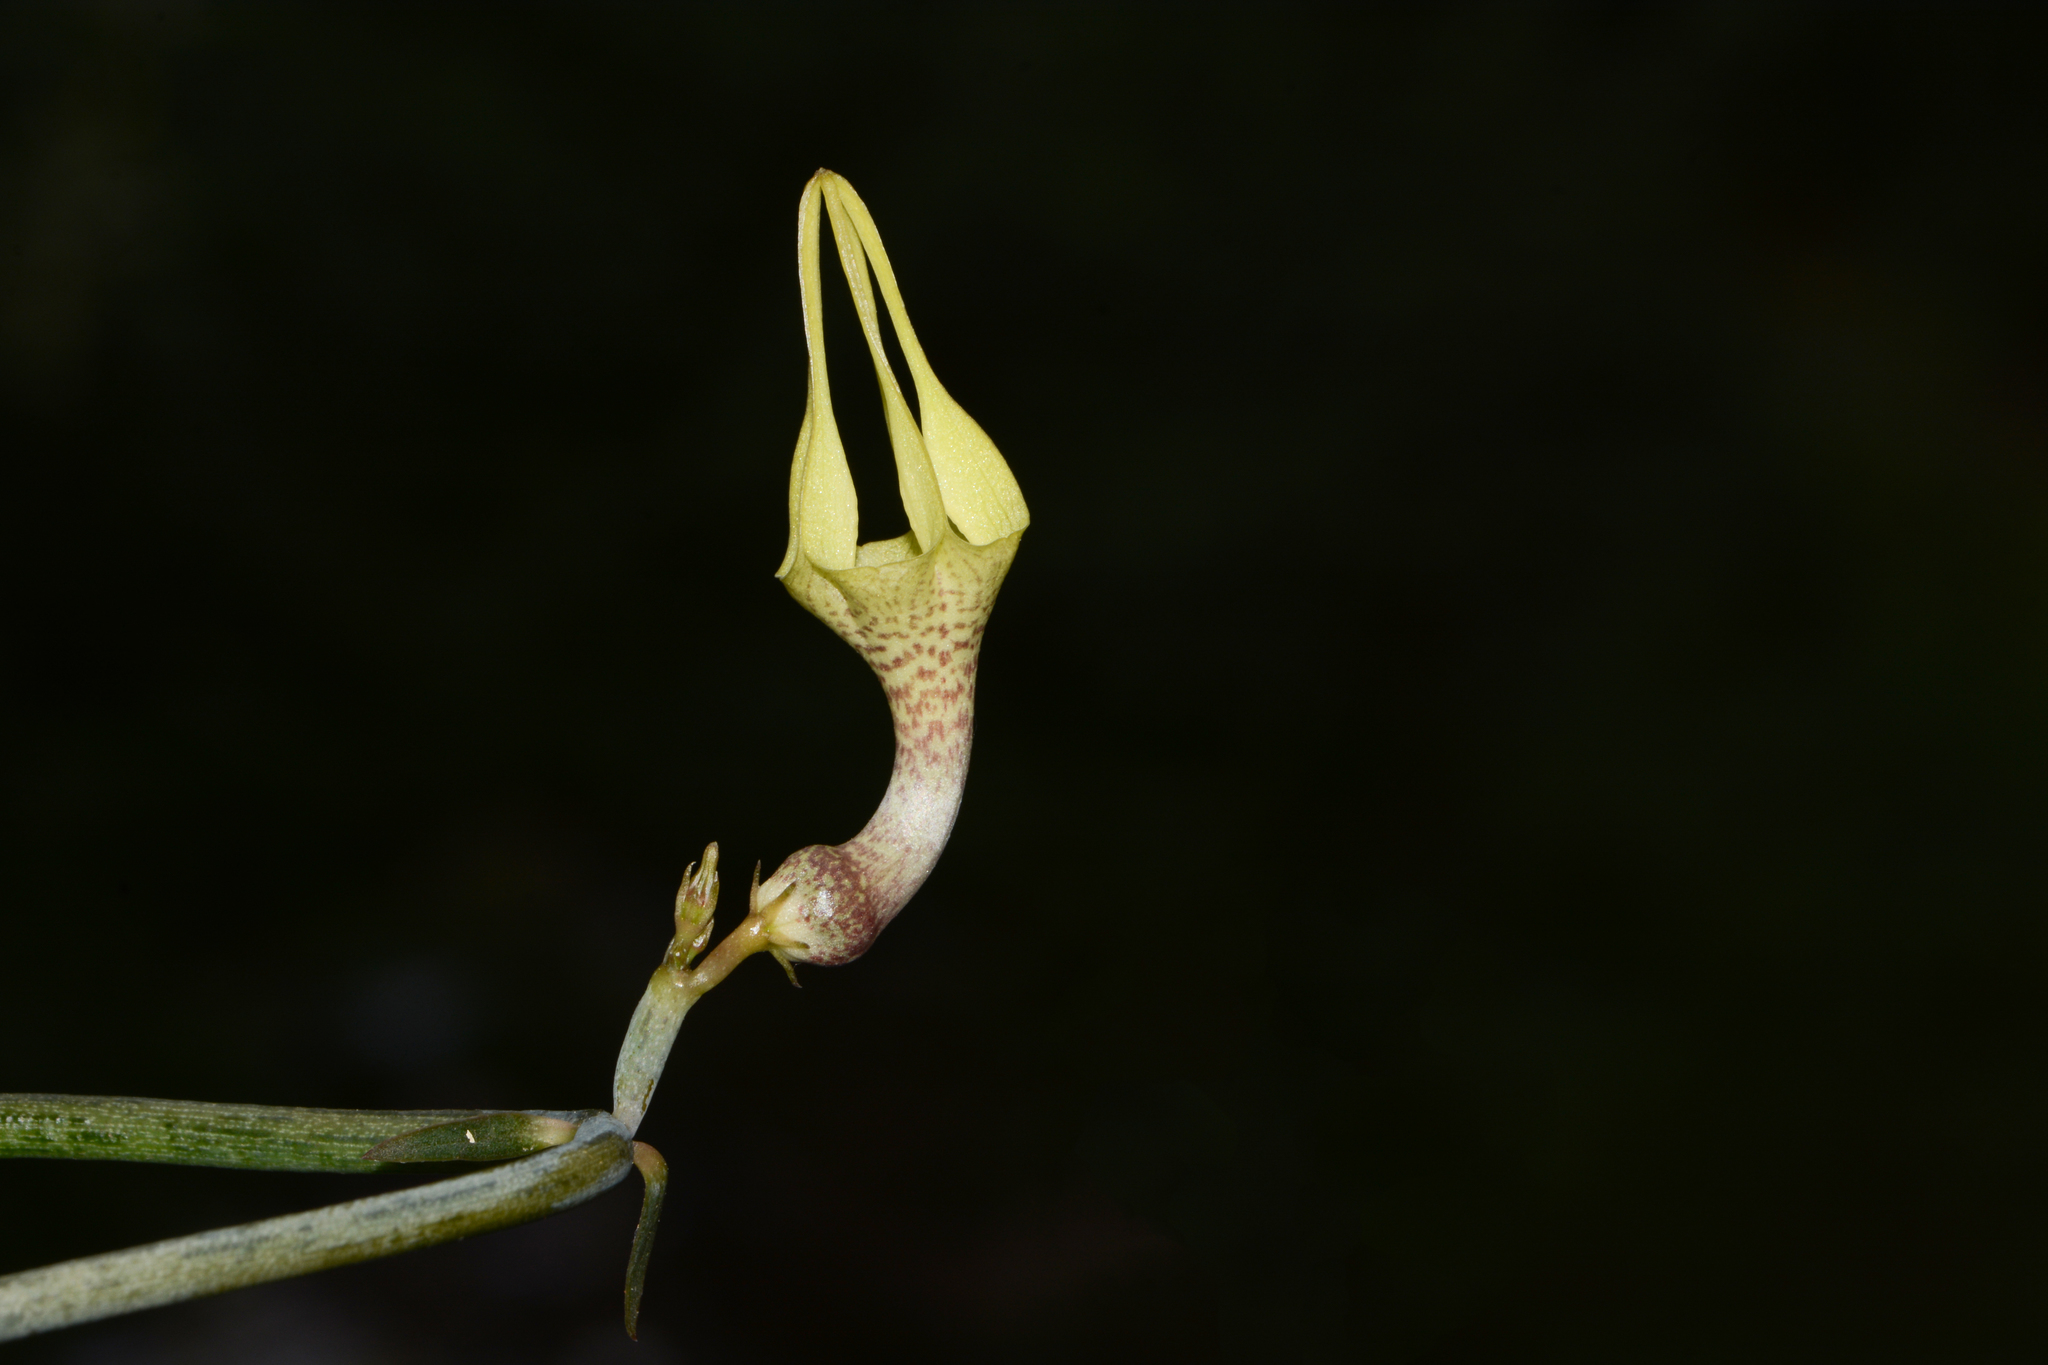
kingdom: Plantae
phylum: Tracheophyta
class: Magnoliopsida
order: Gentianales
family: Apocynaceae
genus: Ceropegia
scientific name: Ceropegia juncea
